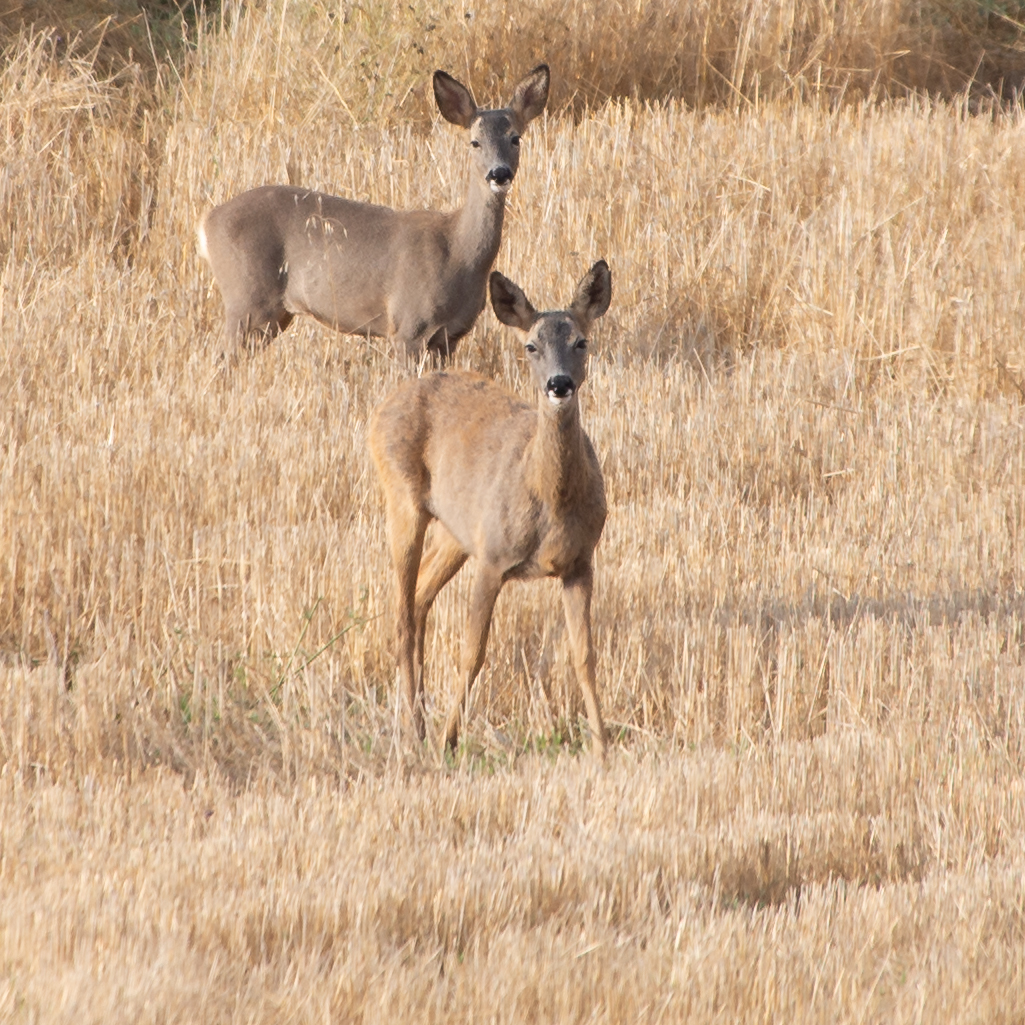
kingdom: Animalia
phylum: Chordata
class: Mammalia
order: Artiodactyla
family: Cervidae
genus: Capreolus
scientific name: Capreolus capreolus
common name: Western roe deer
